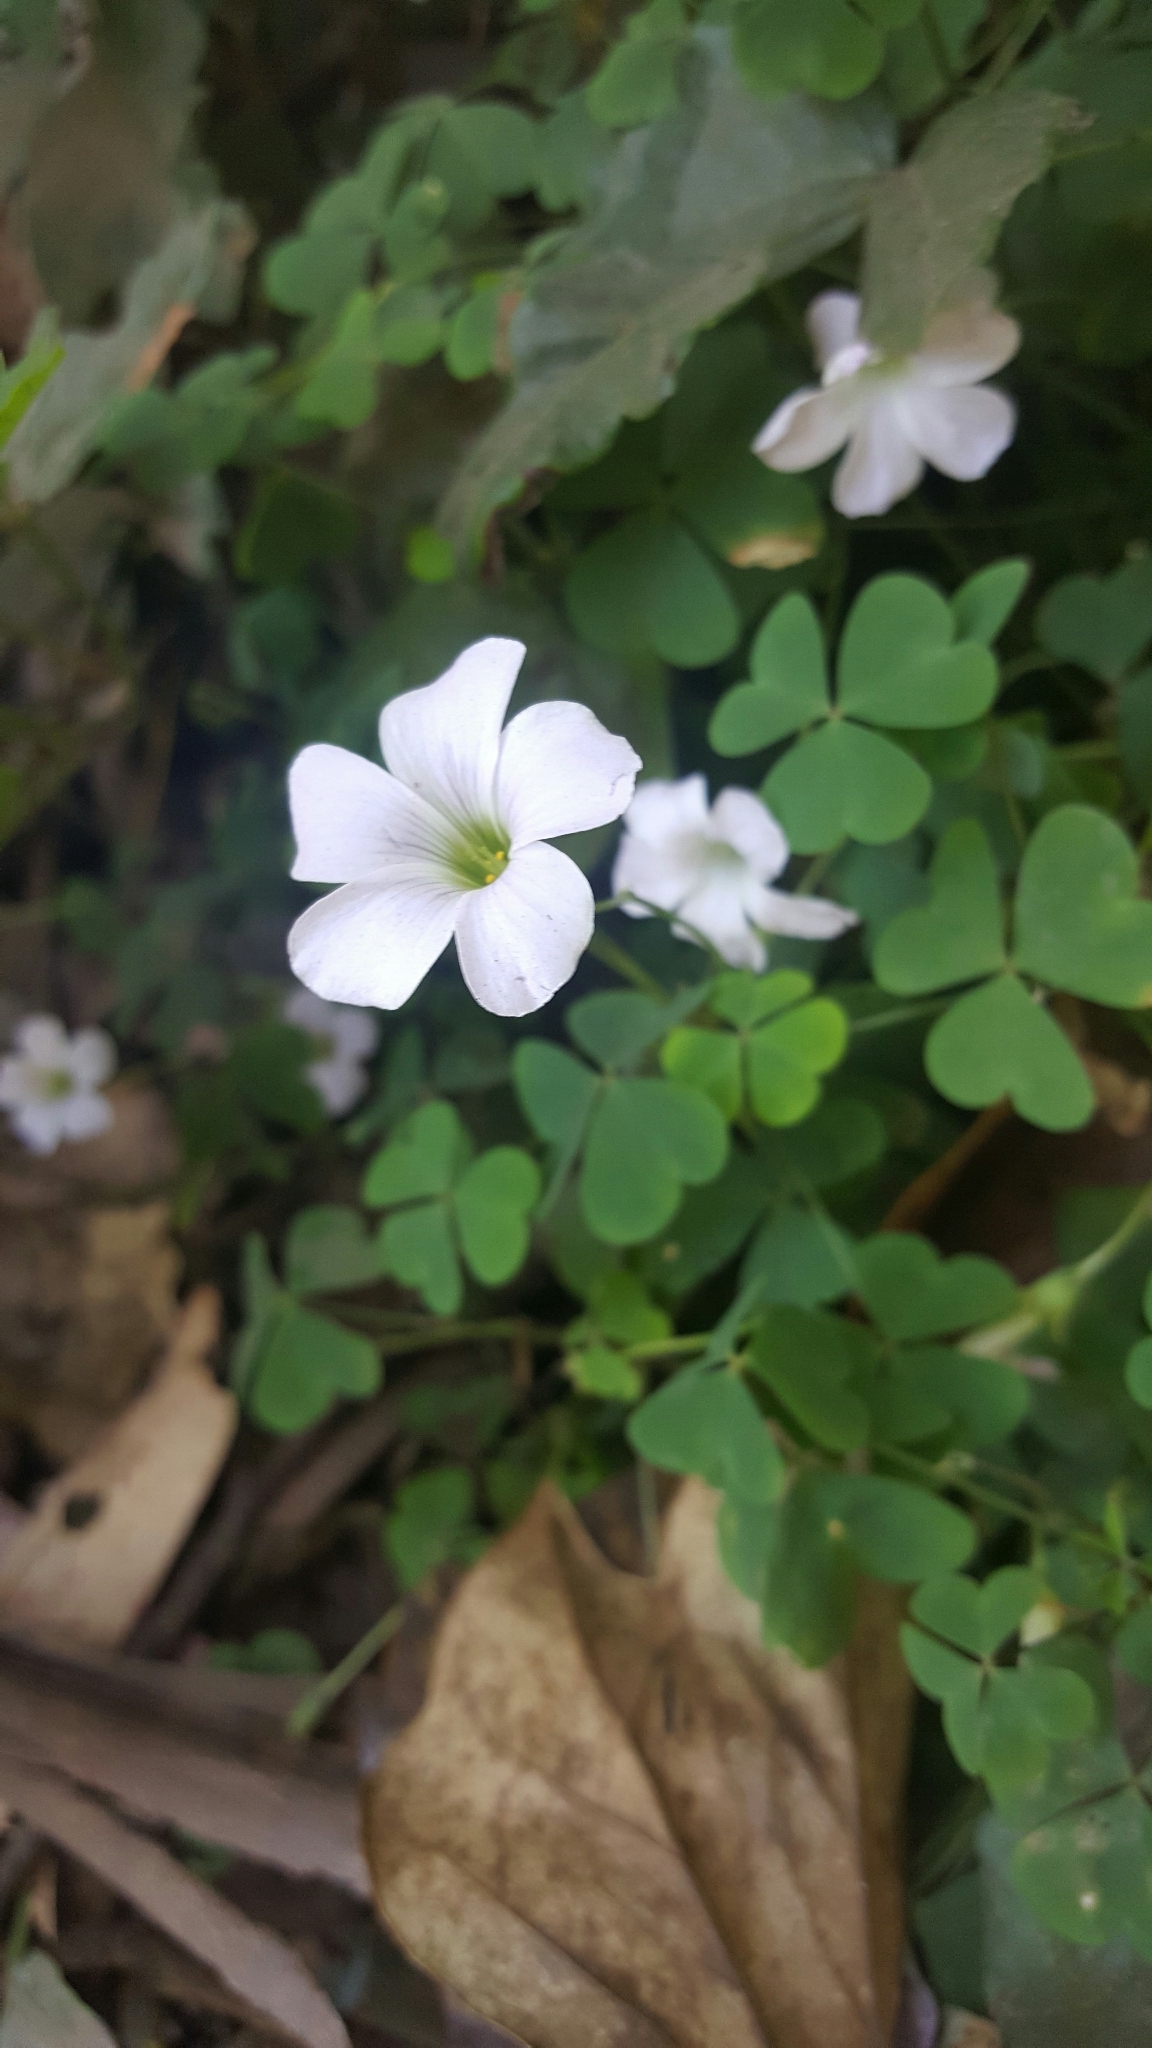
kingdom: Plantae
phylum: Tracheophyta
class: Magnoliopsida
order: Oxalidales
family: Oxalidaceae
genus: Oxalis
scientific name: Oxalis incarnata
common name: Pale pink-sorrel
